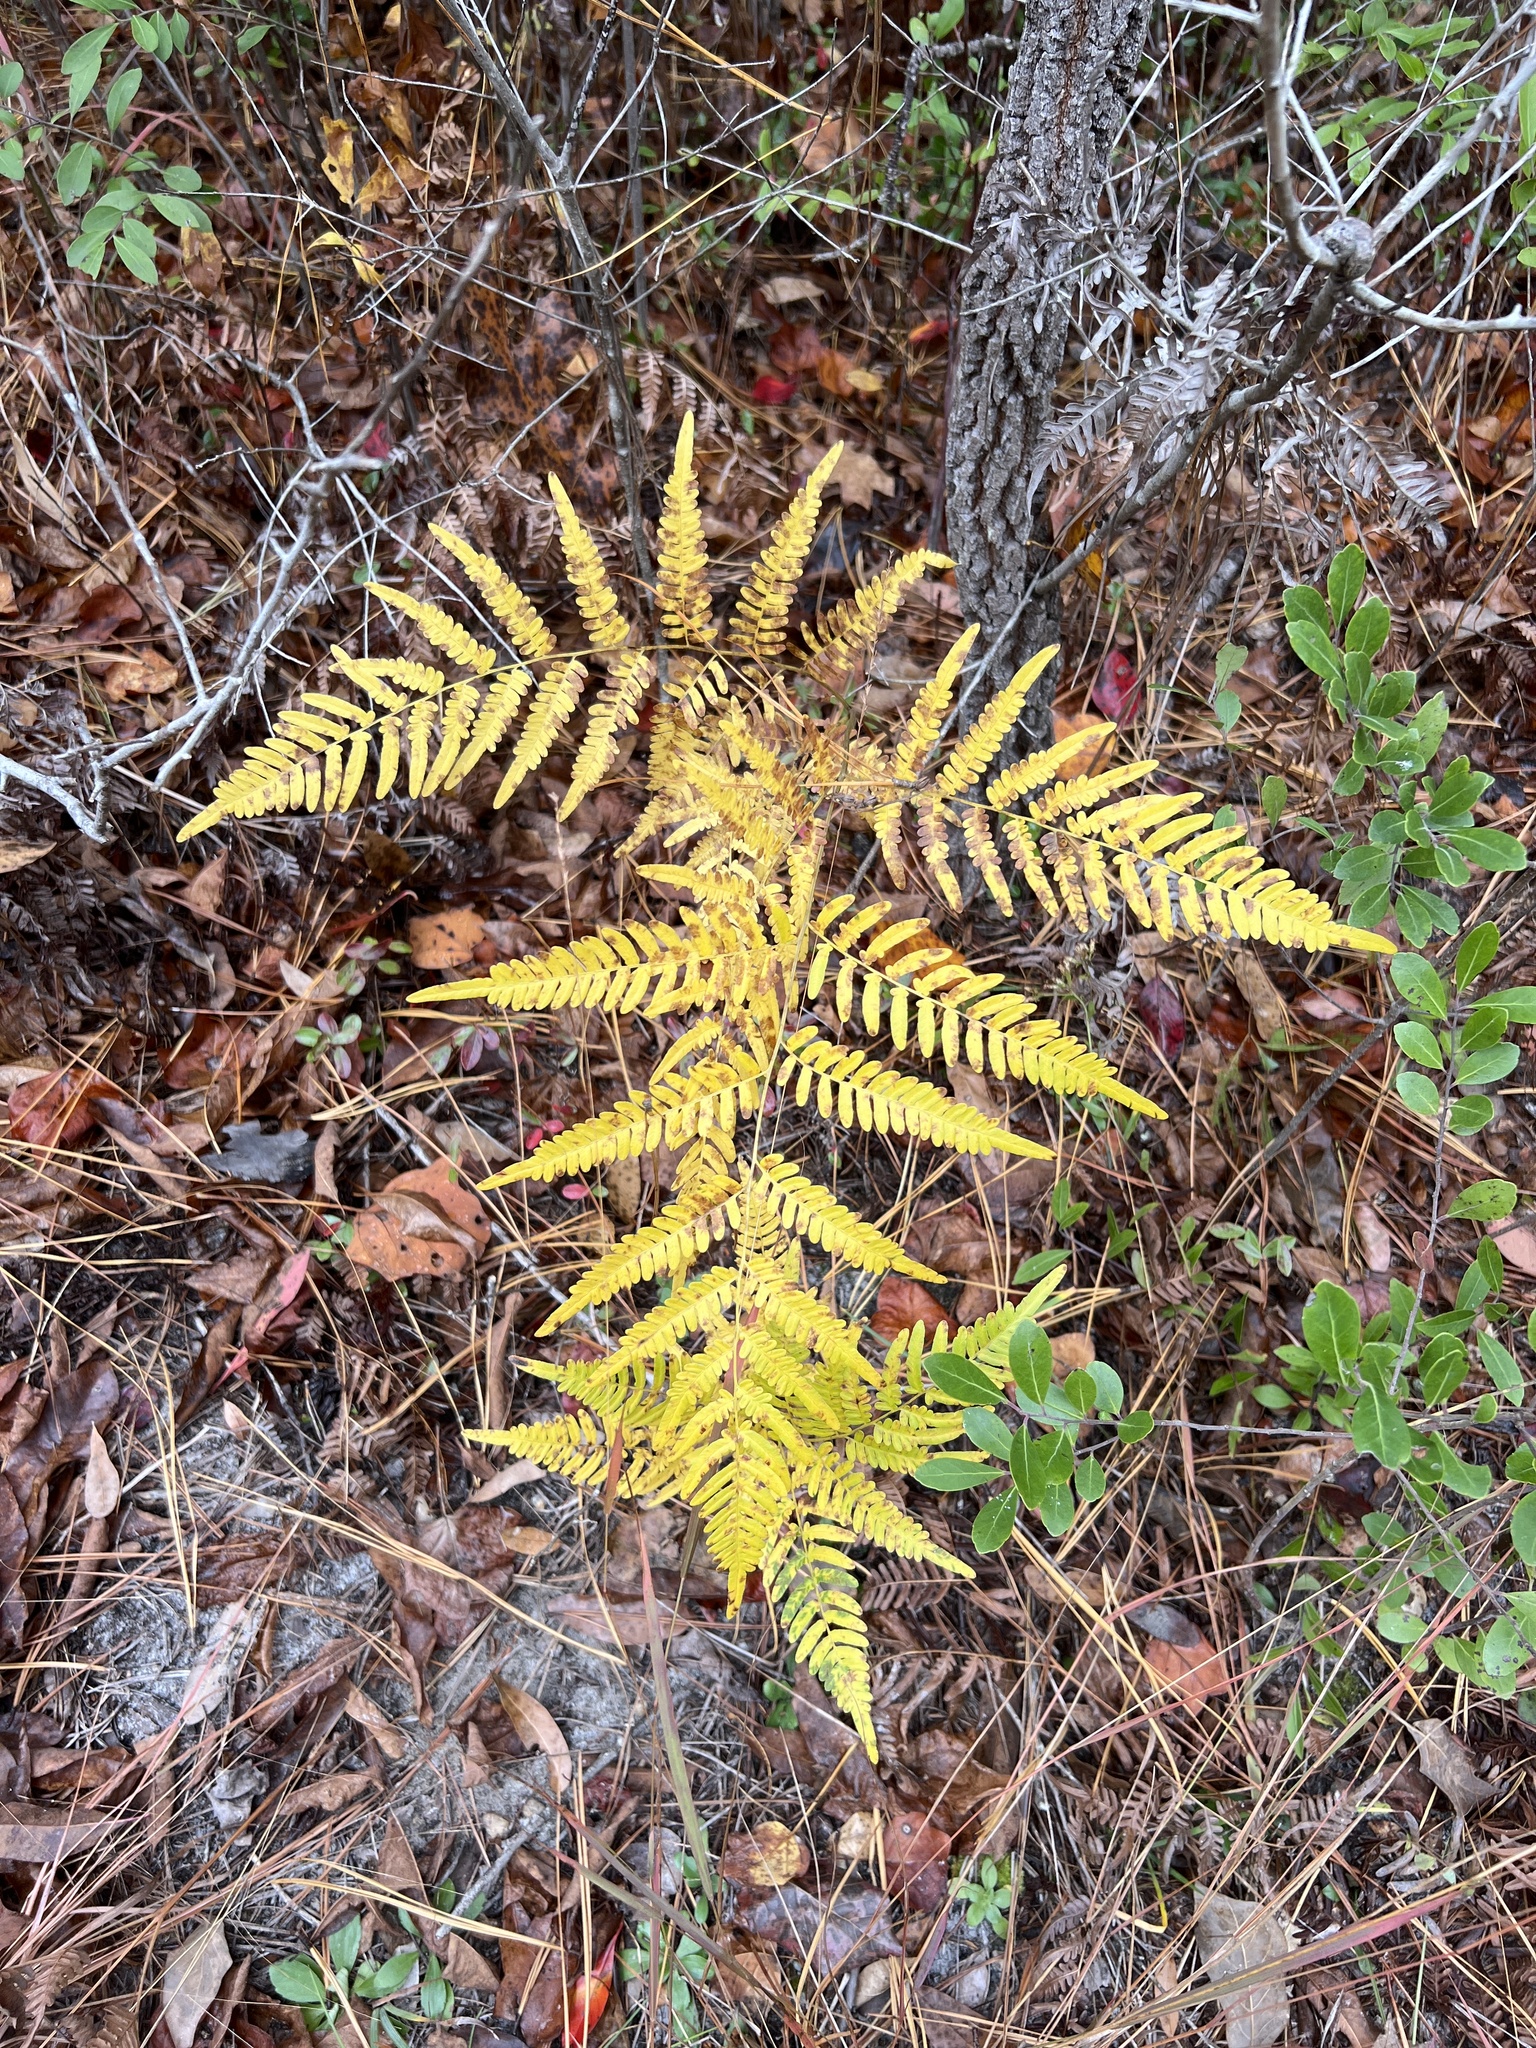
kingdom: Plantae
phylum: Tracheophyta
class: Polypodiopsida
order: Polypodiales
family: Dennstaedtiaceae
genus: Pteridium
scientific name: Pteridium
